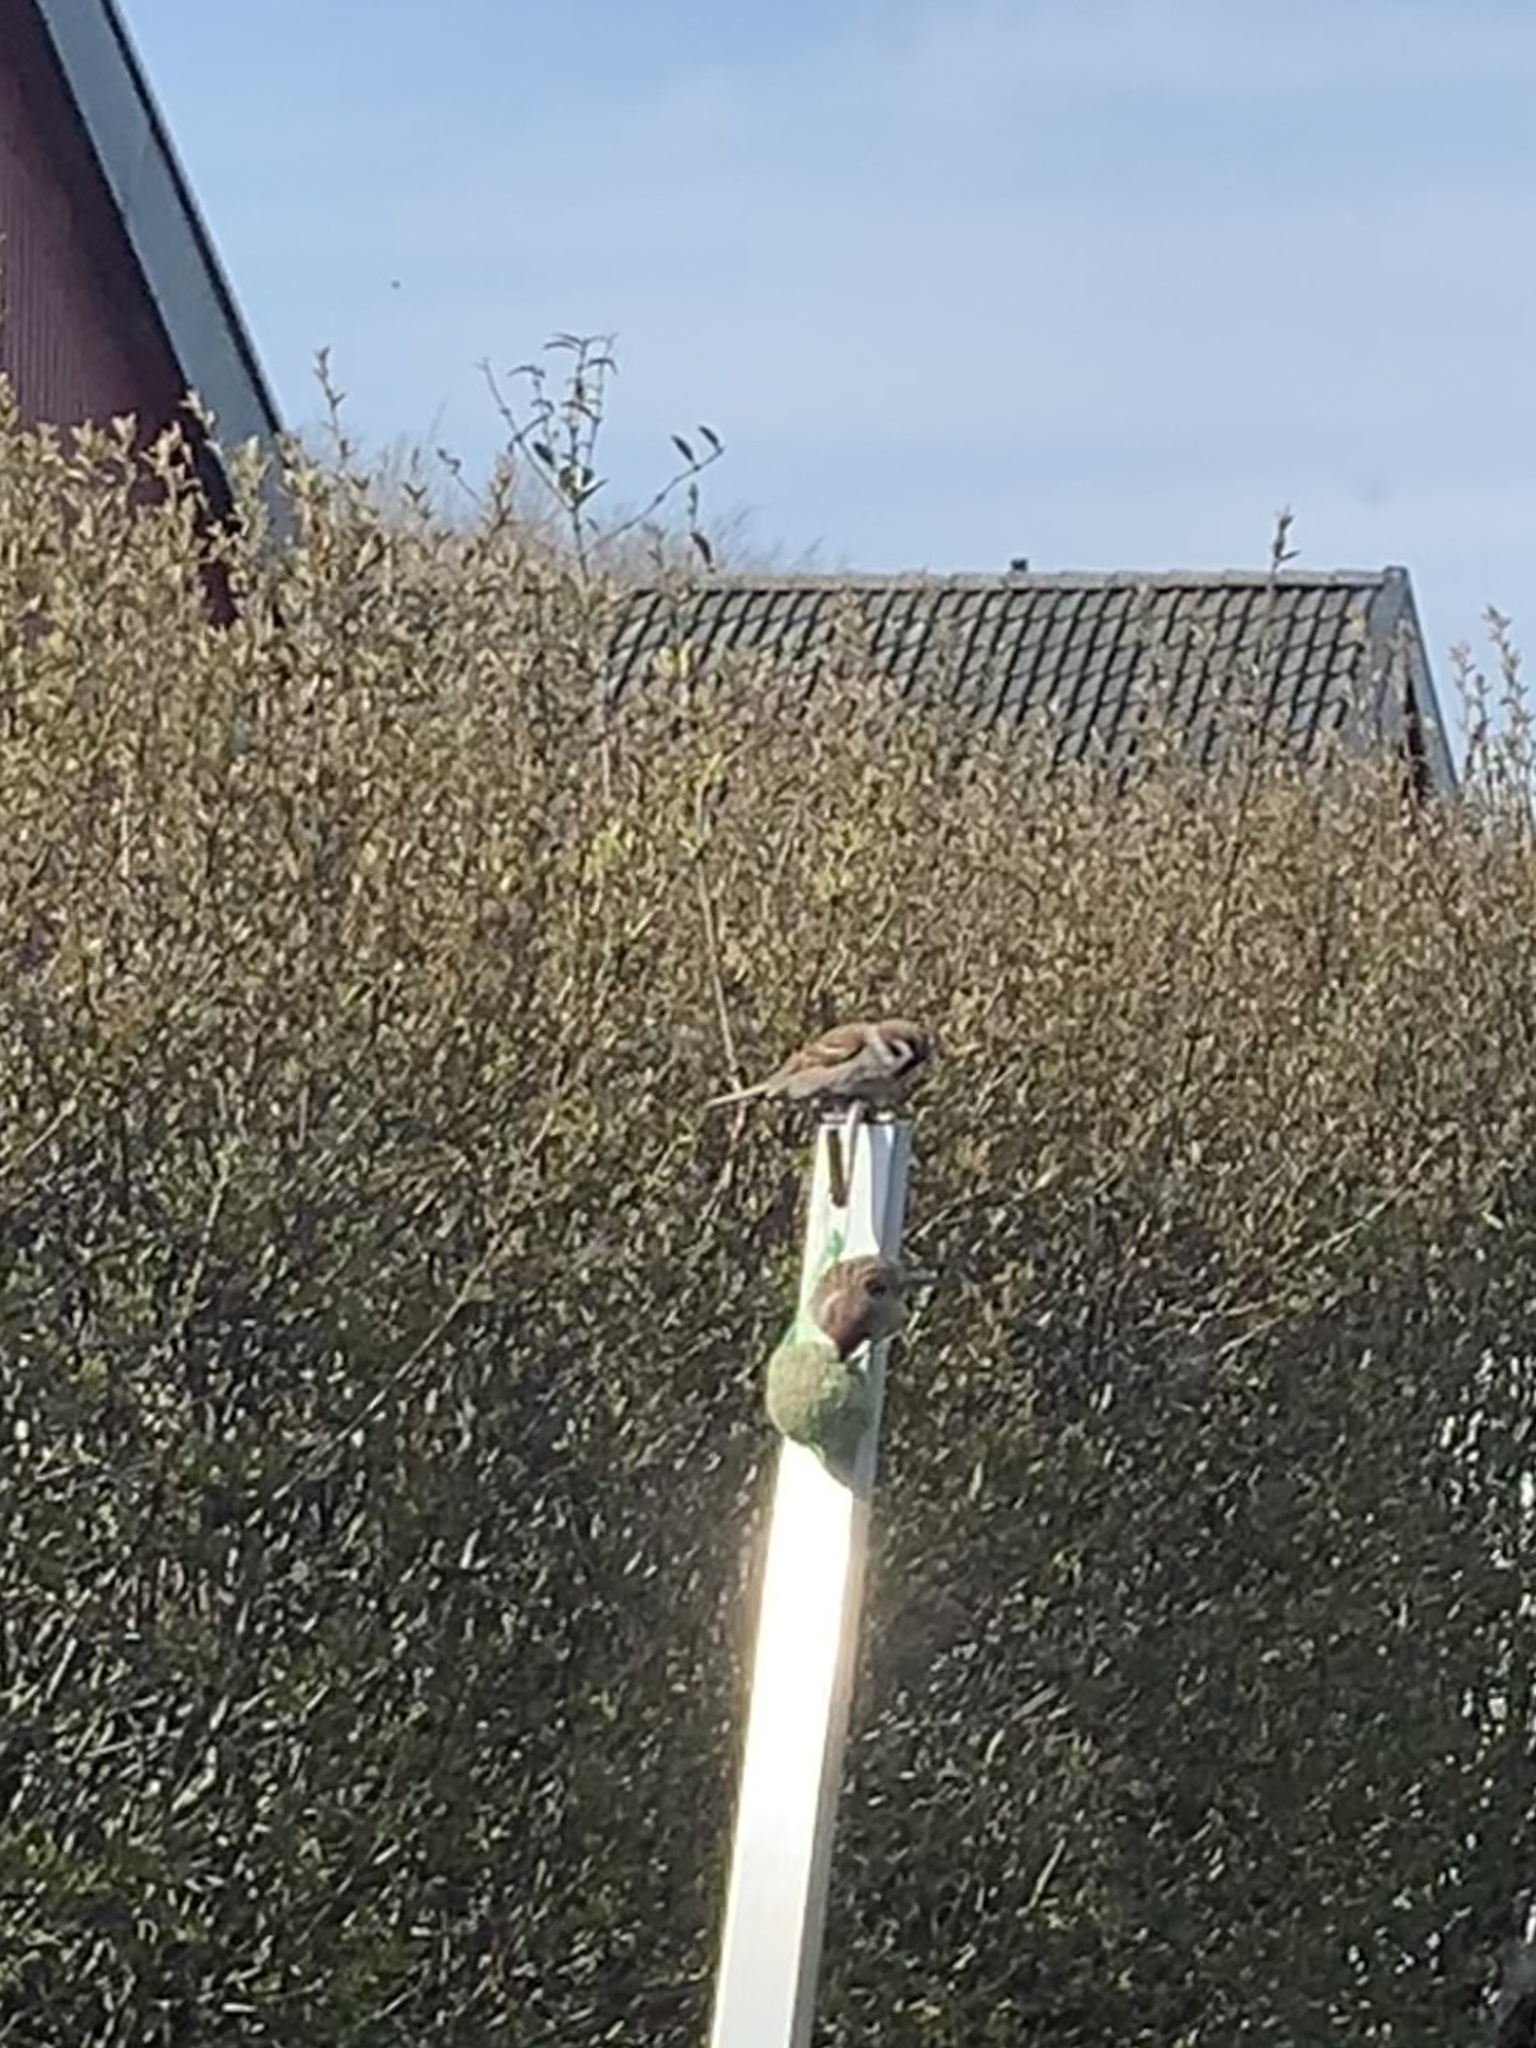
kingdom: Animalia
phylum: Chordata
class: Aves
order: Passeriformes
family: Passeridae
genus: Passer
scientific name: Passer montanus
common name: Eurasian tree sparrow
